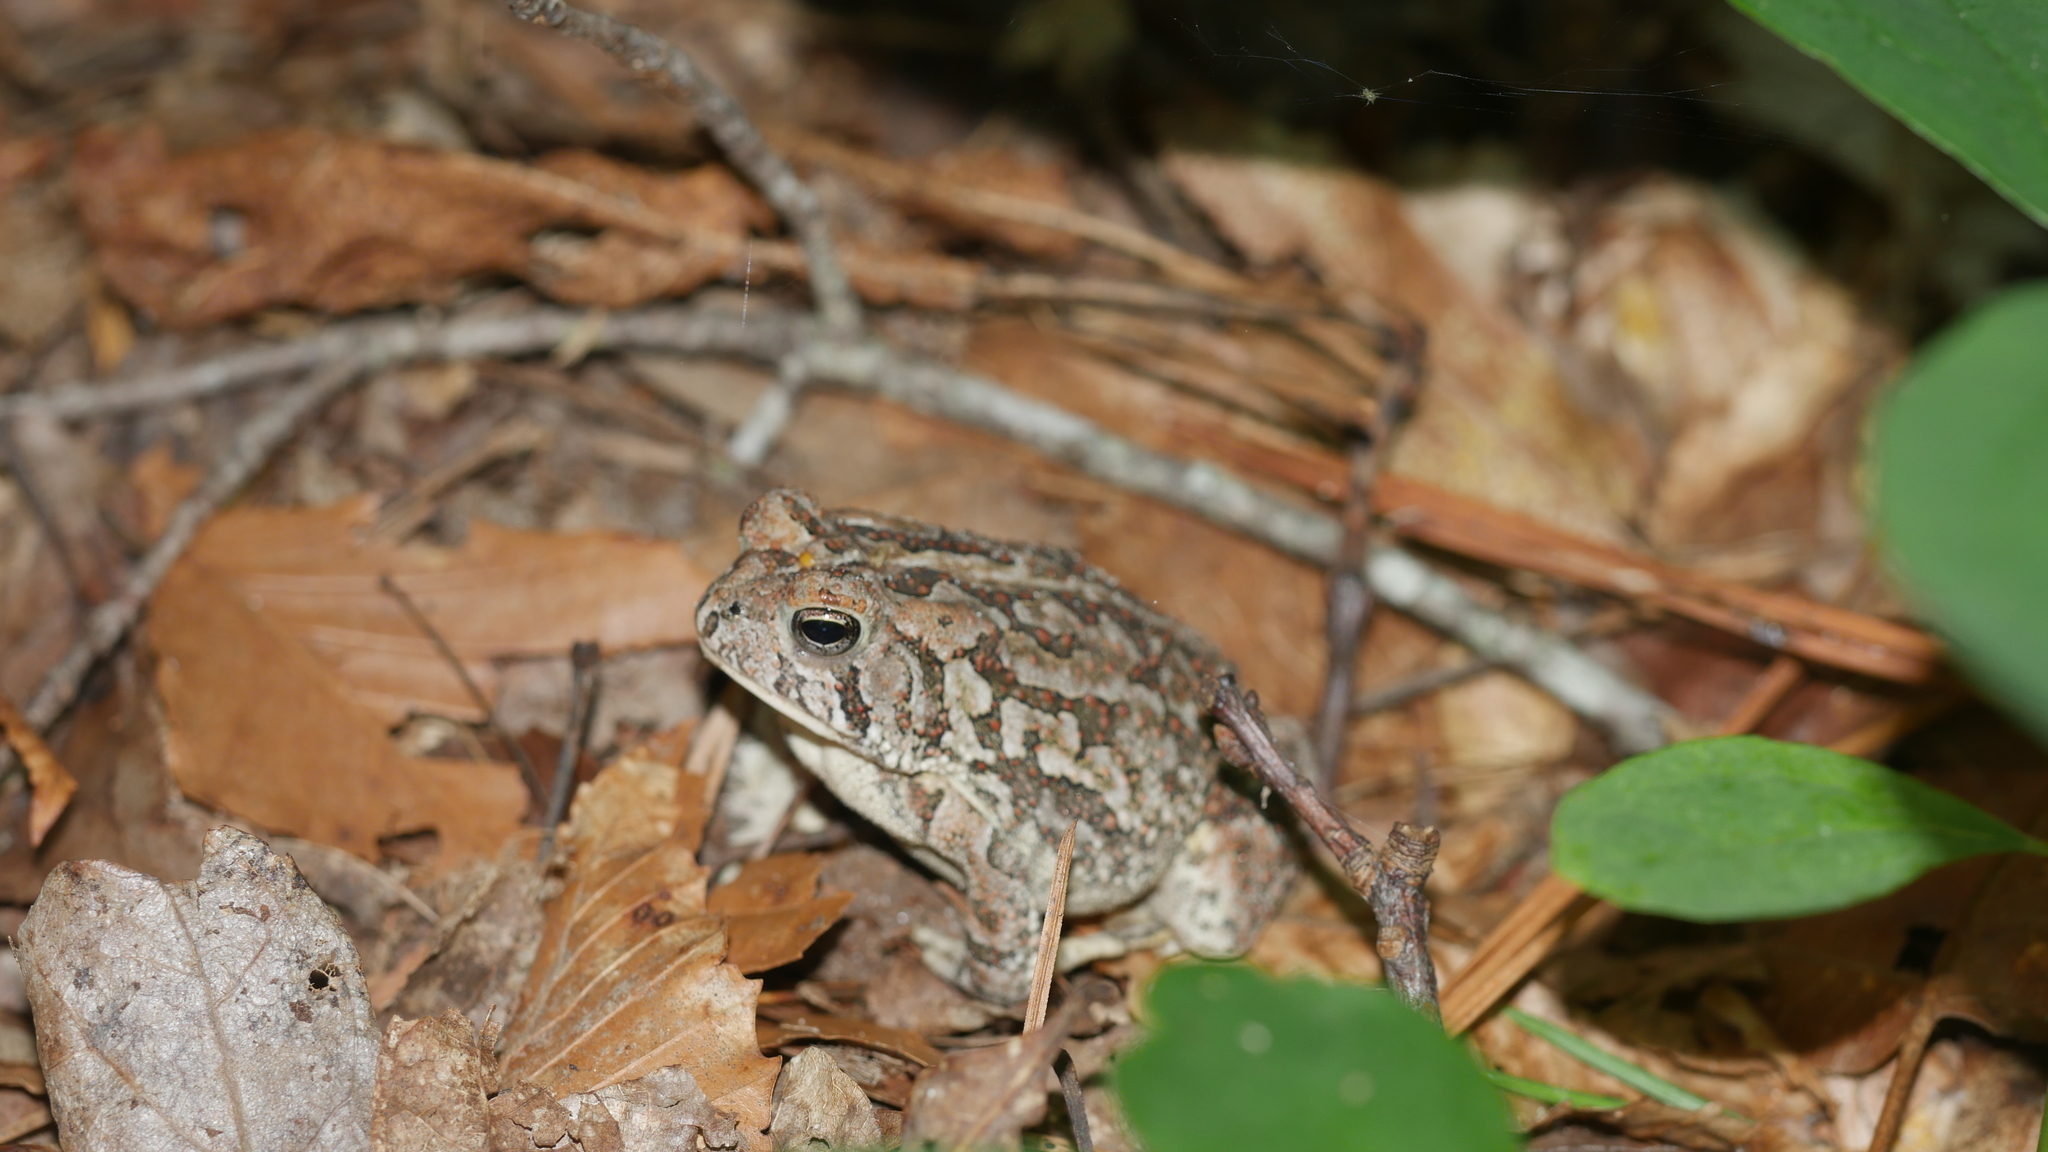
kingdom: Animalia
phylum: Chordata
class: Amphibia
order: Anura
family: Bufonidae
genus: Anaxyrus
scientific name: Anaxyrus fowleri
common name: Fowler's toad
